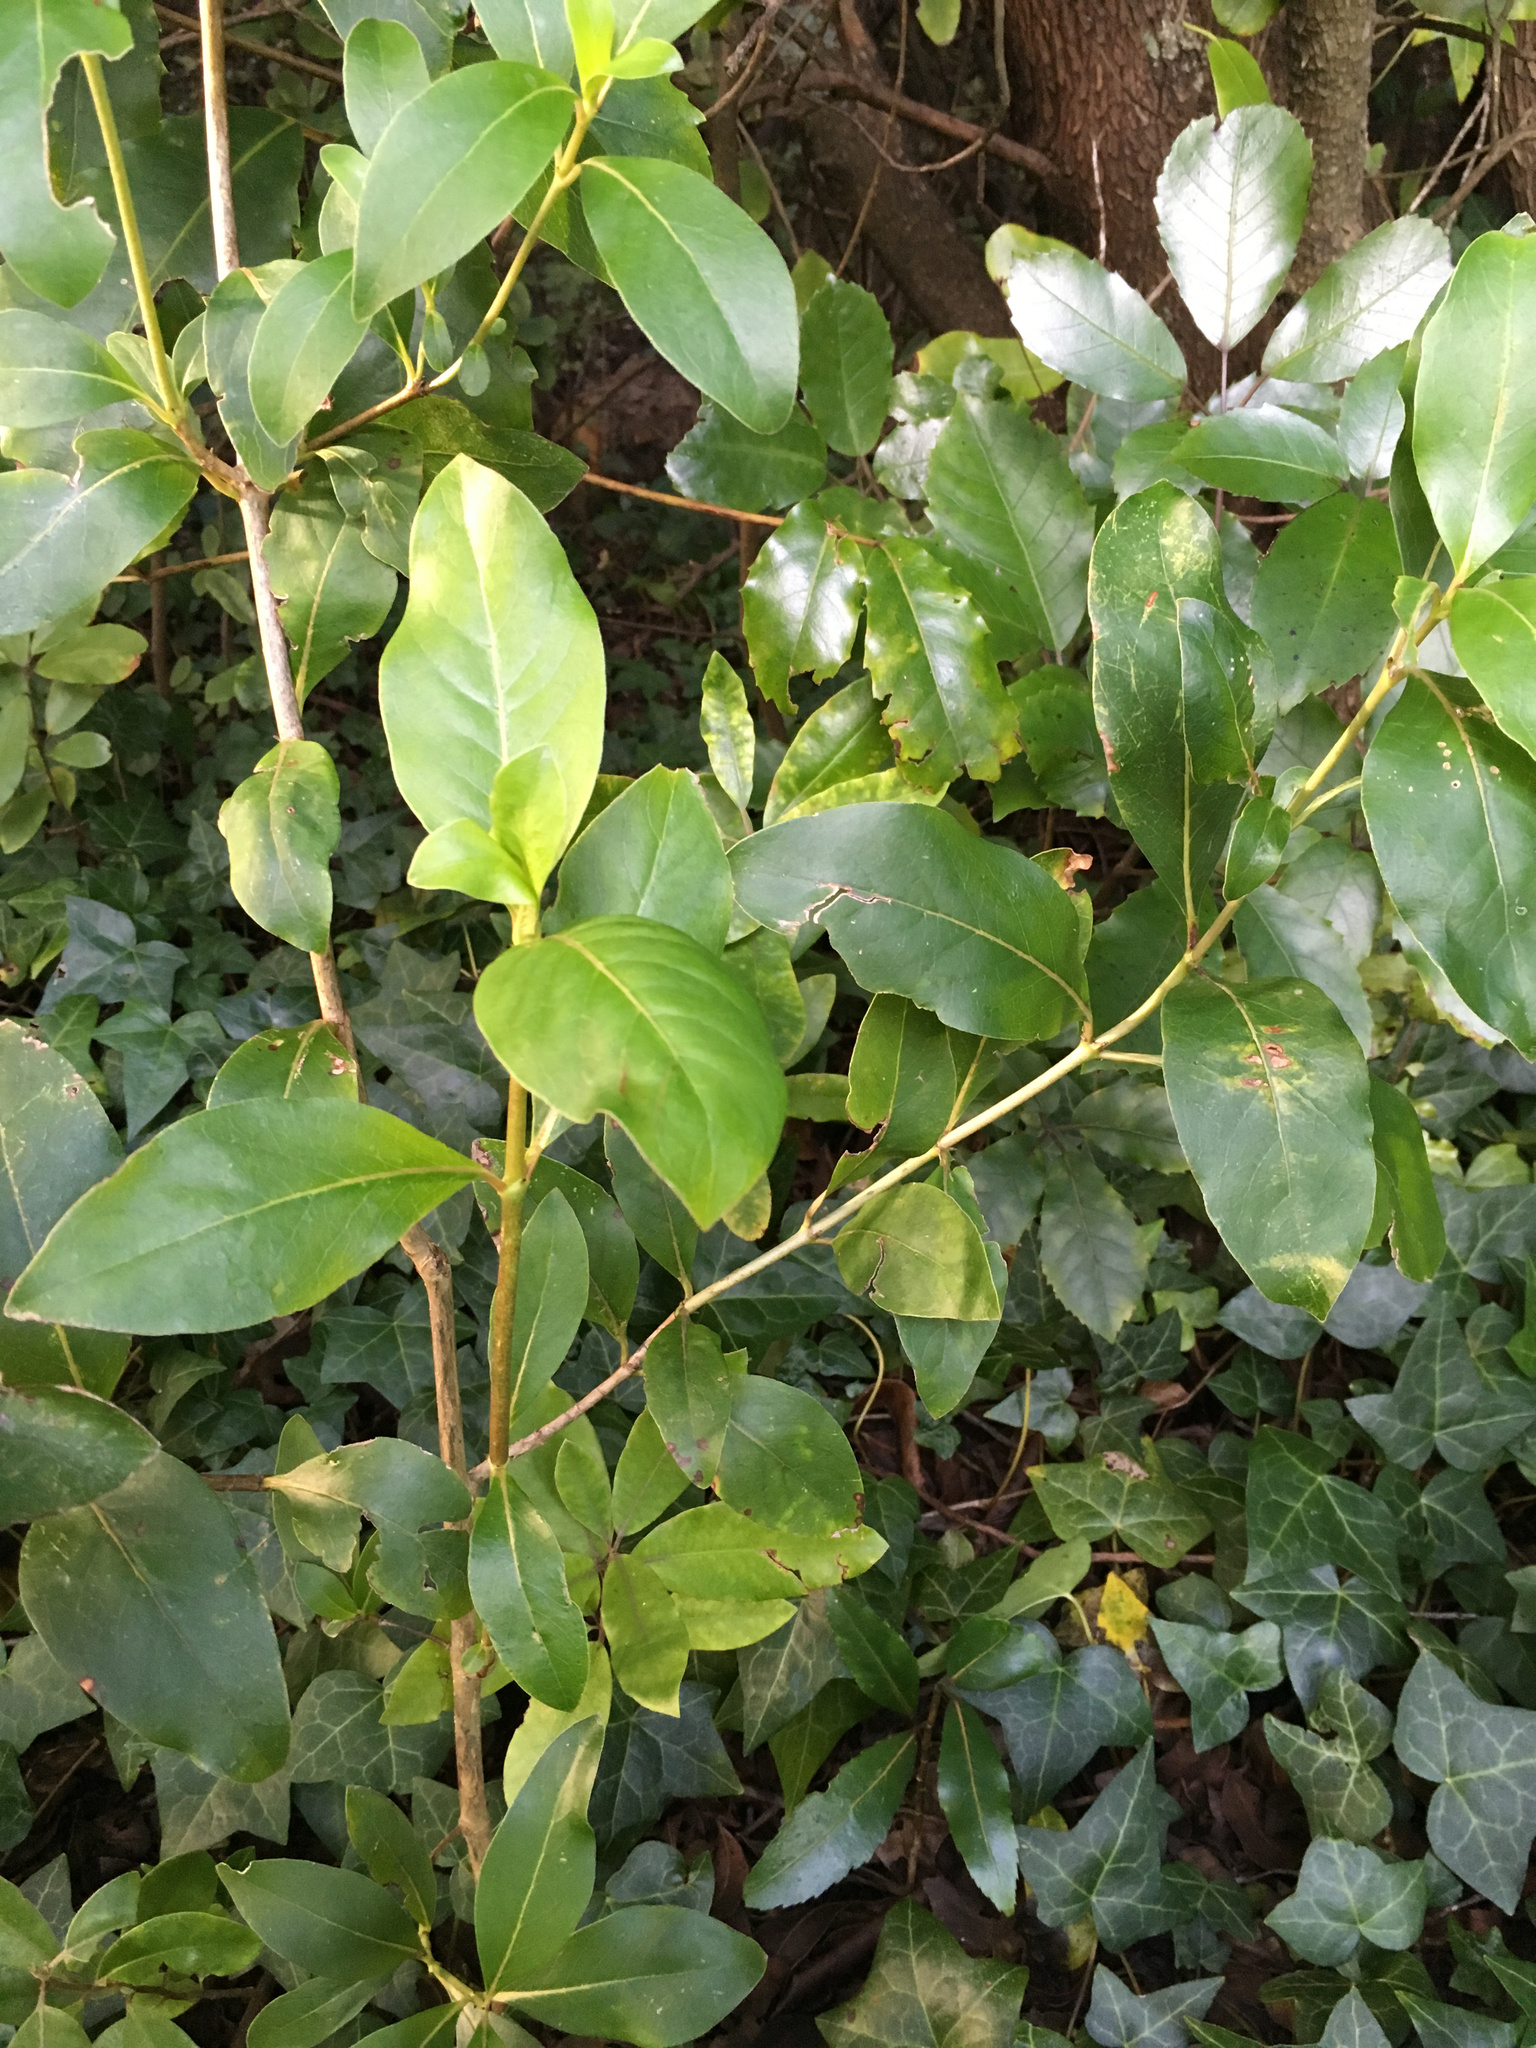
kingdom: Plantae
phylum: Tracheophyta
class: Magnoliopsida
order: Gentianales
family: Rubiaceae
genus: Coprosma
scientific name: Coprosma robusta
